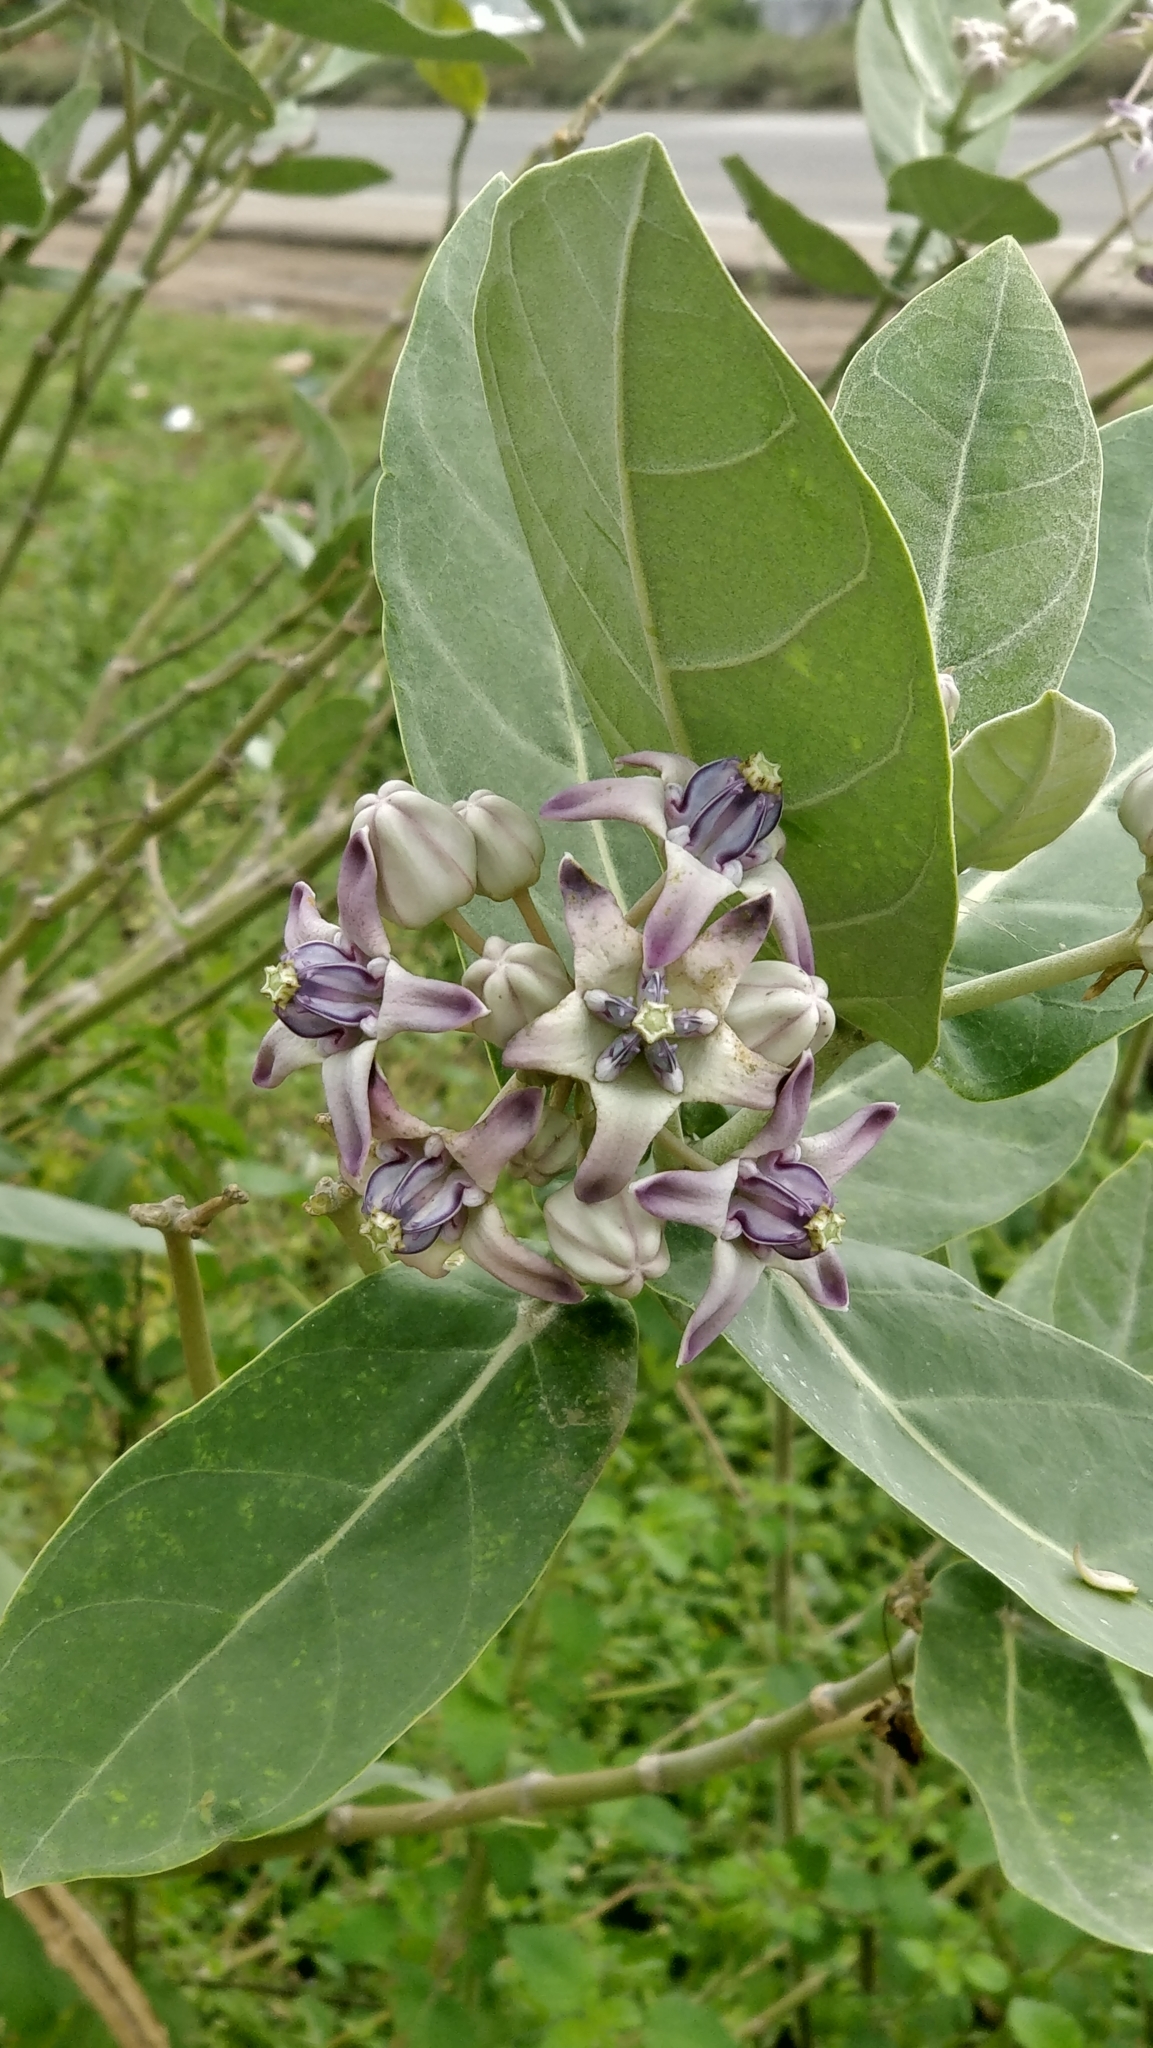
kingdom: Plantae
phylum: Tracheophyta
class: Magnoliopsida
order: Gentianales
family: Apocynaceae
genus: Calotropis
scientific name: Calotropis gigantea
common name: Crown flower
